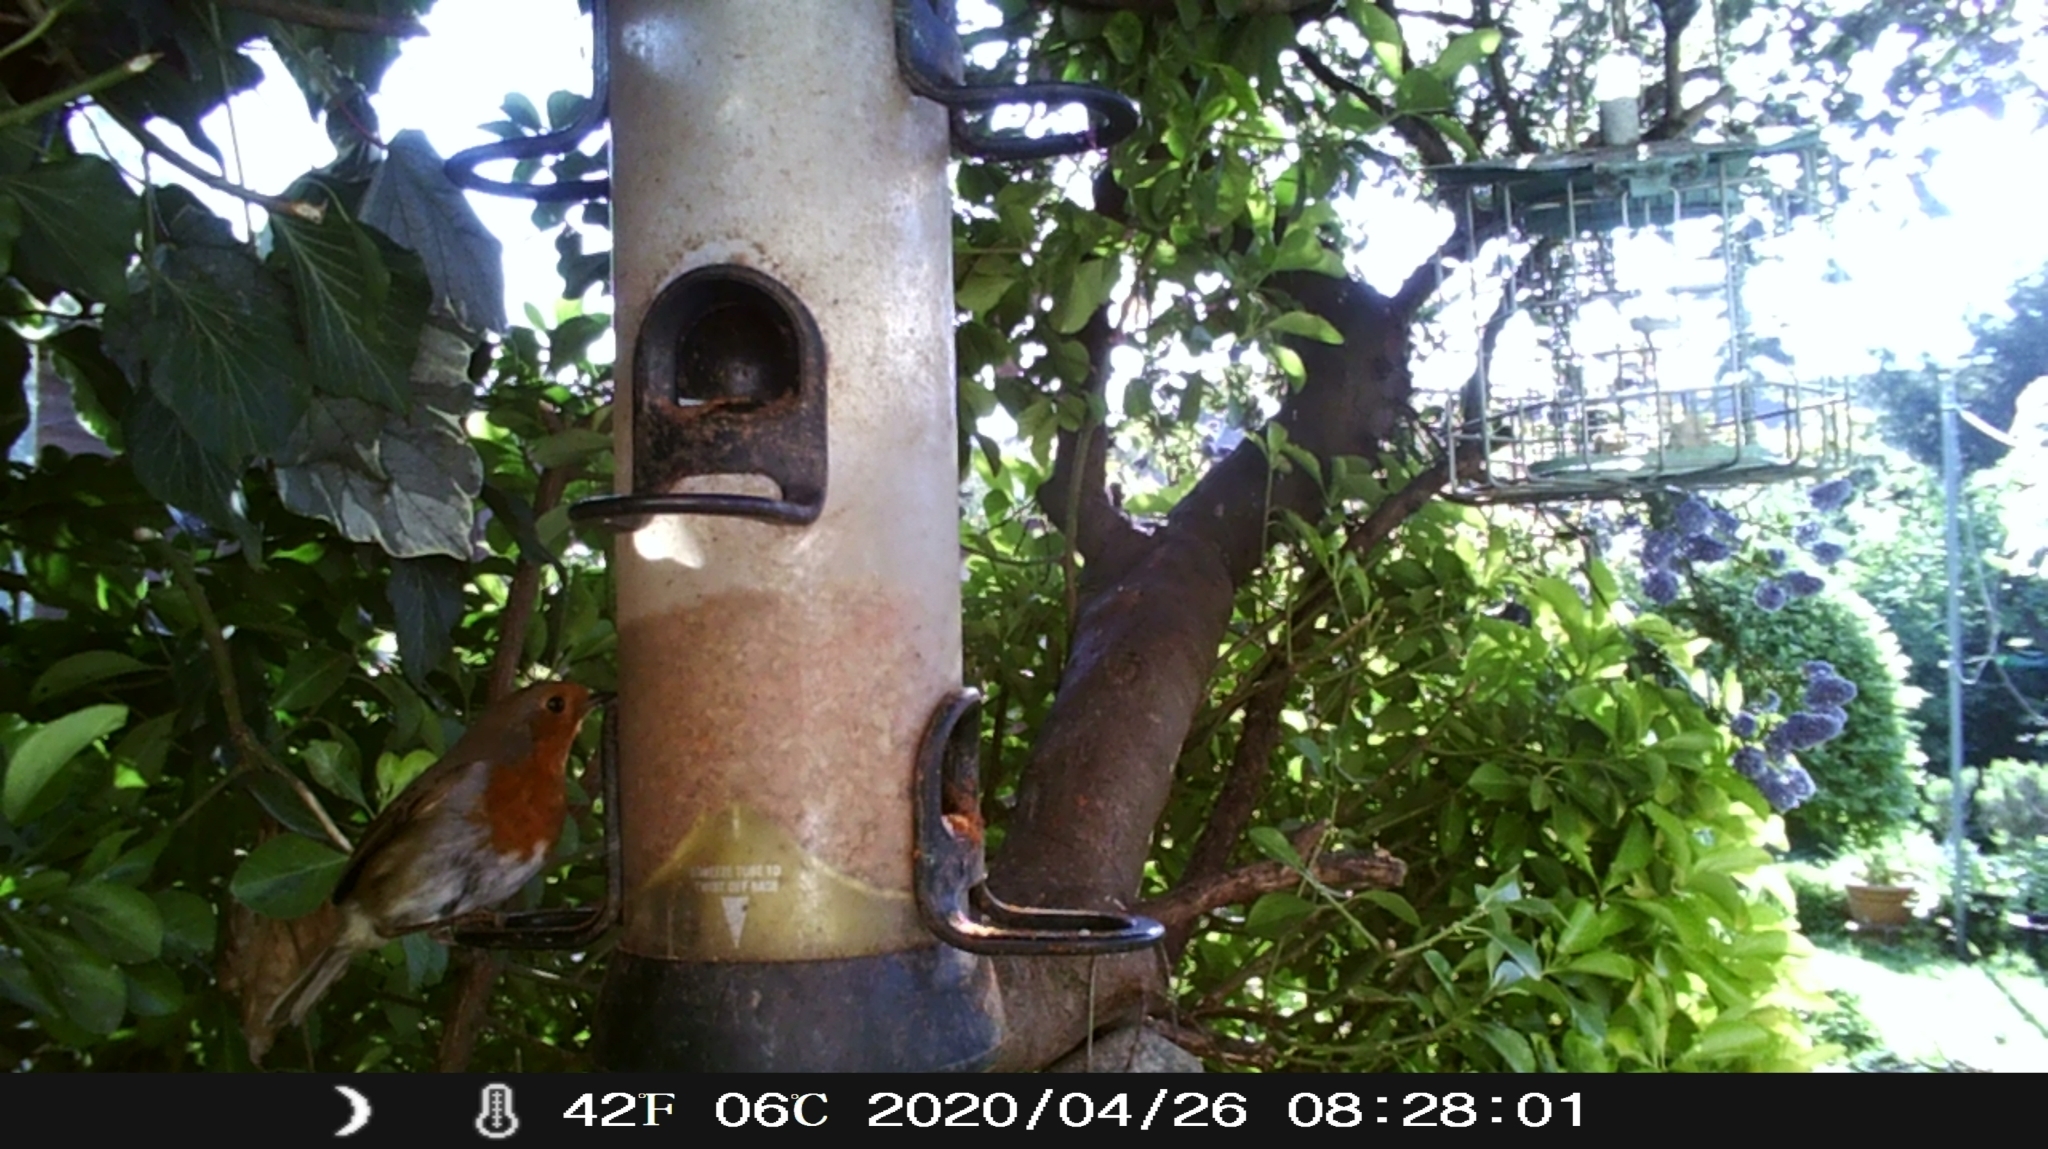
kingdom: Animalia
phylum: Chordata
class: Aves
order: Passeriformes
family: Muscicapidae
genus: Erithacus
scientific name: Erithacus rubecula
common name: European robin
